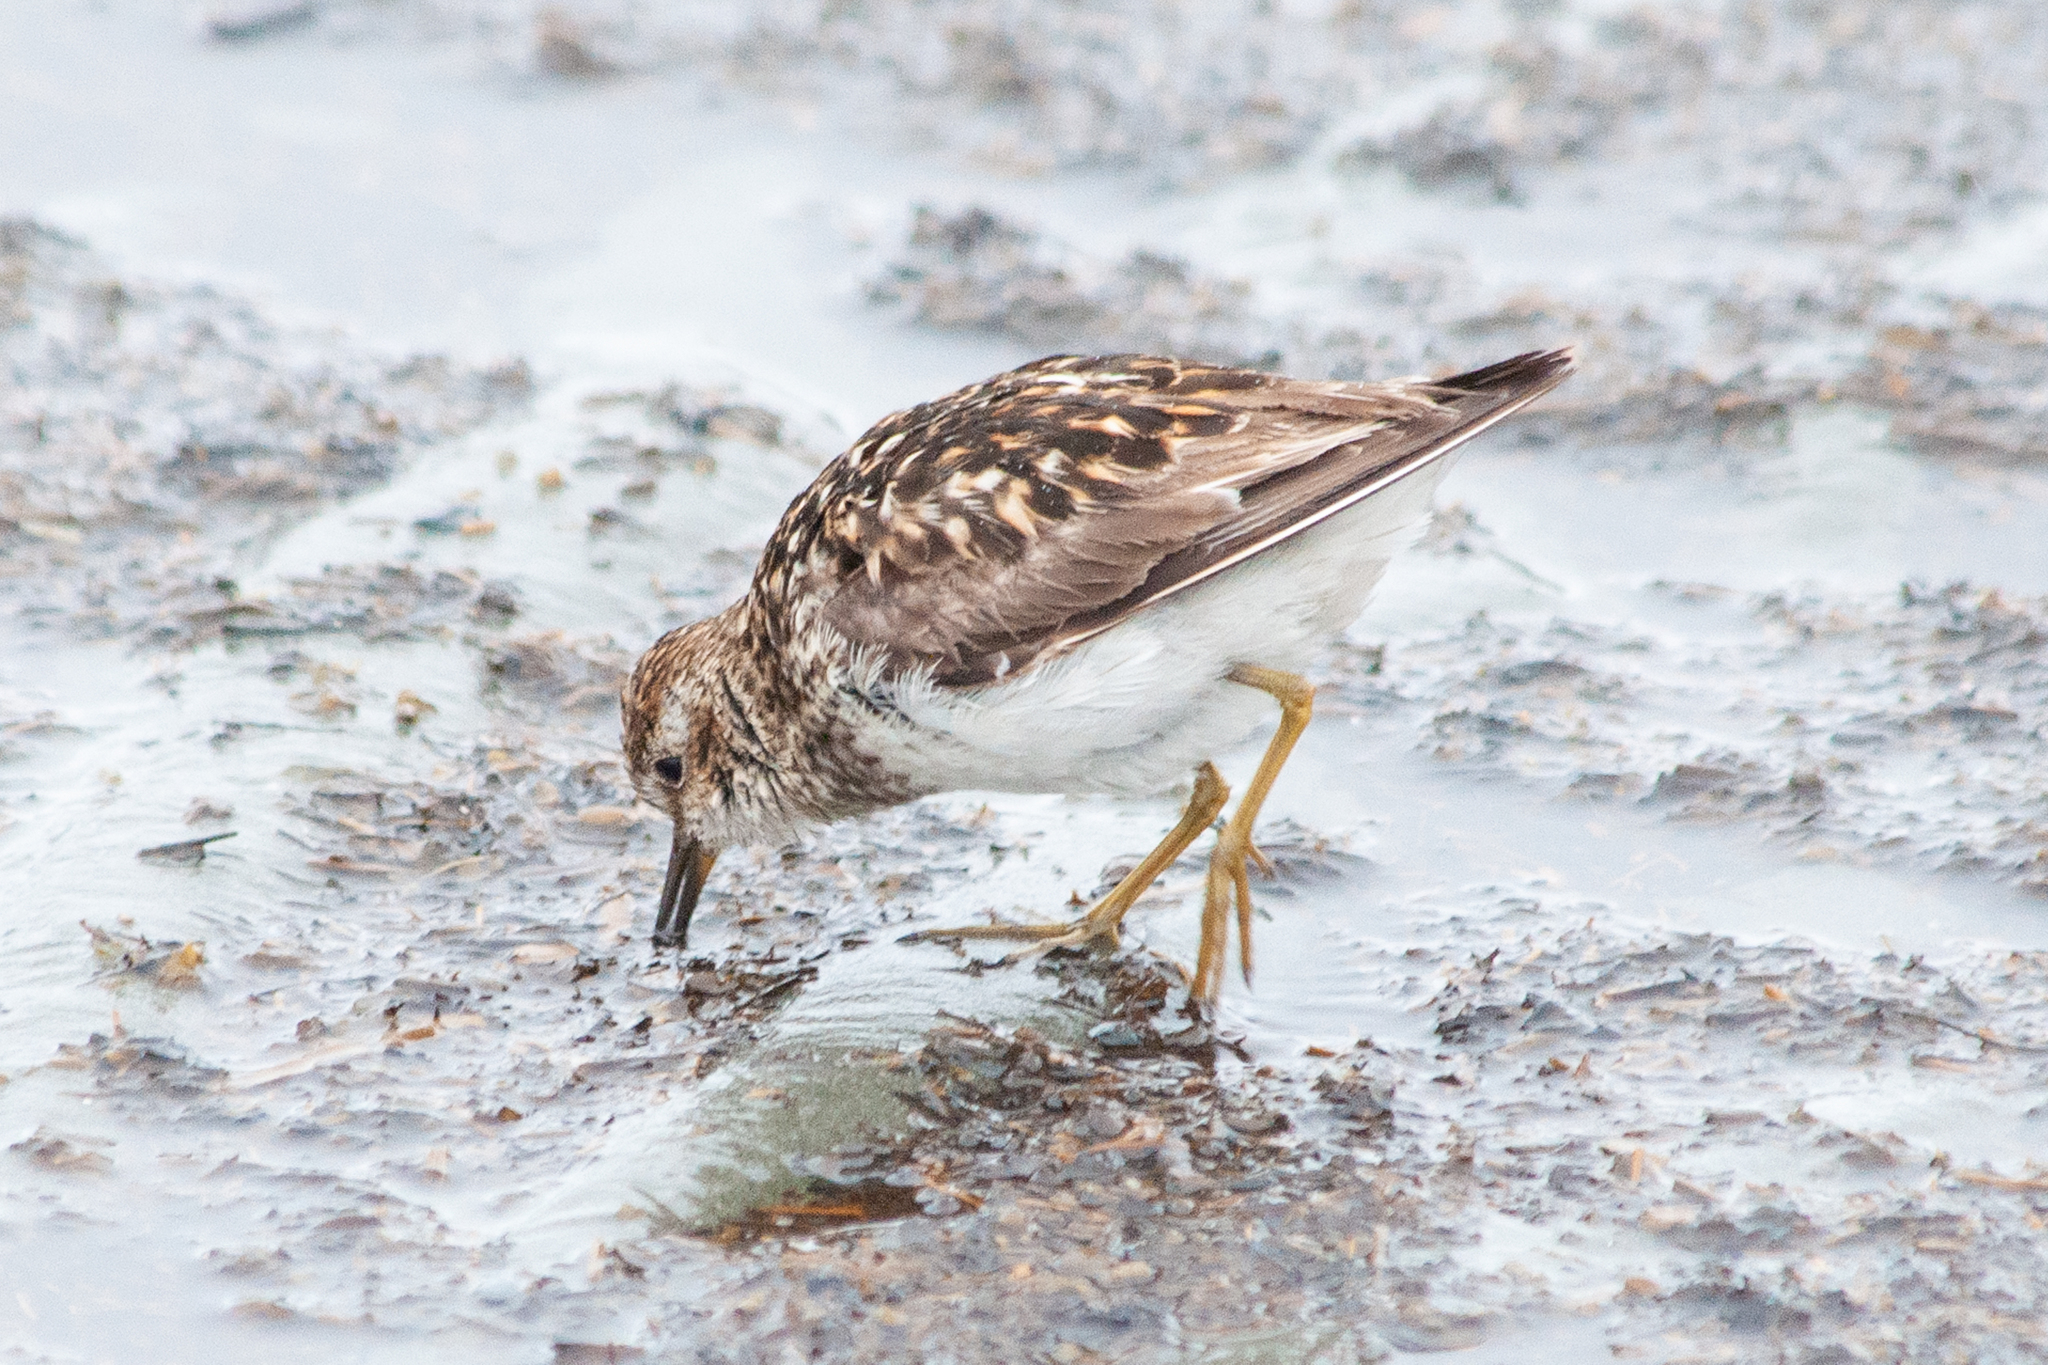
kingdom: Animalia
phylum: Chordata
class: Aves
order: Charadriiformes
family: Scolopacidae
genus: Calidris
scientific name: Calidris minutilla
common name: Least sandpiper
